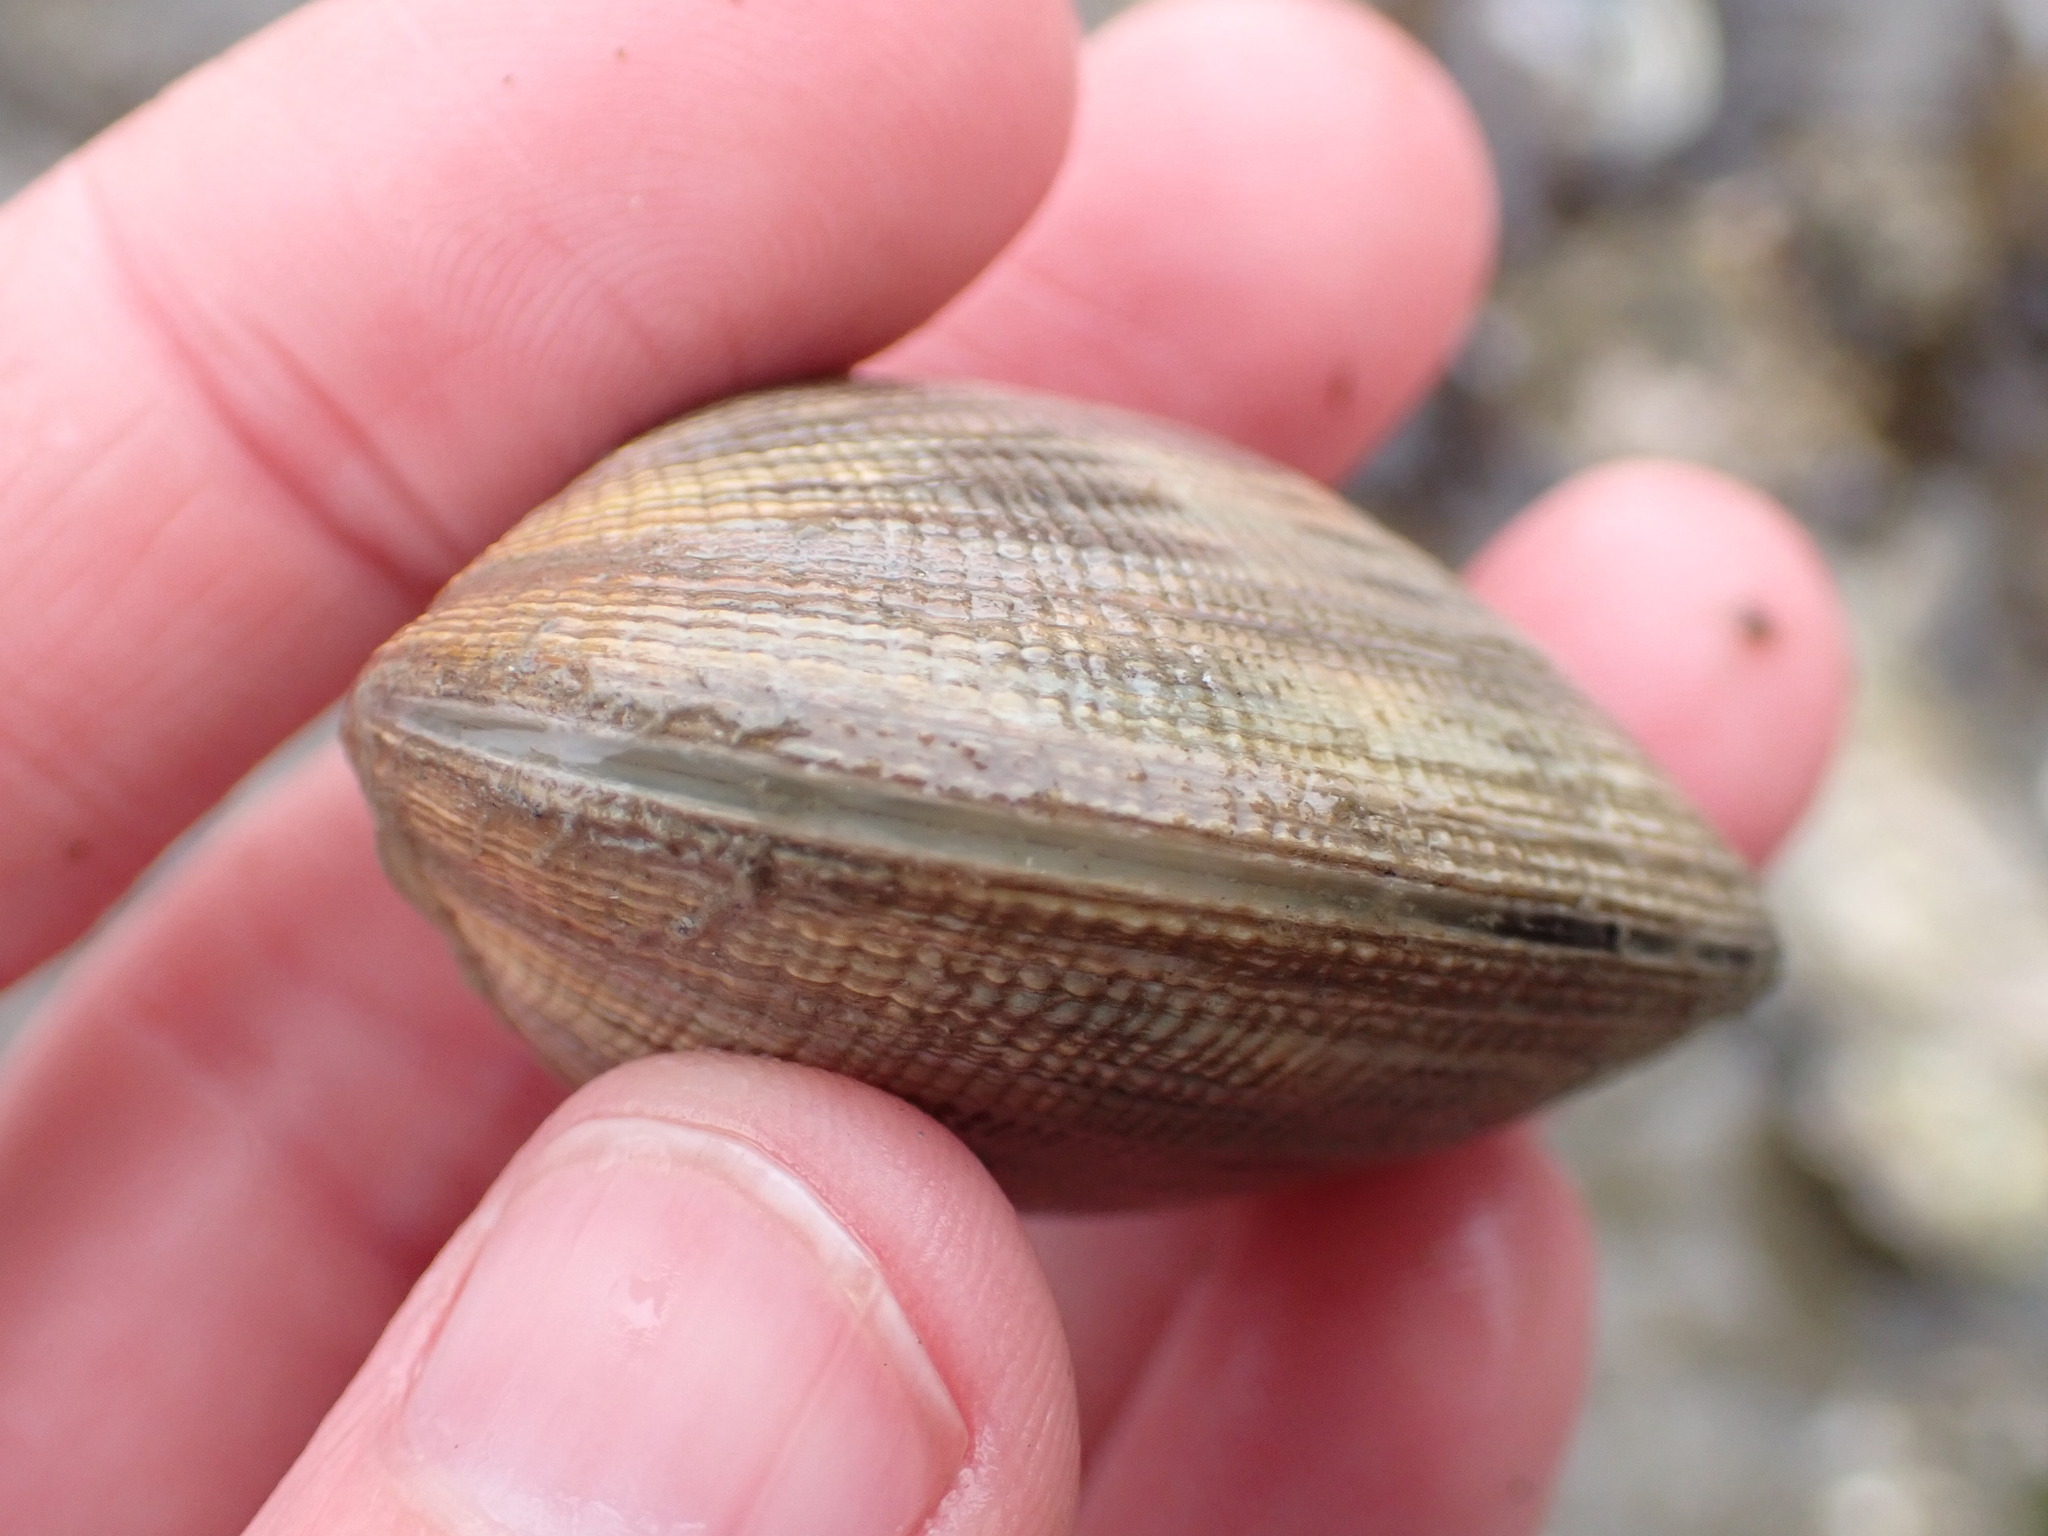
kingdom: Animalia
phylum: Mollusca
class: Bivalvia
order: Venerida
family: Veneridae
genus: Leukoma
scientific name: Leukoma staminea
